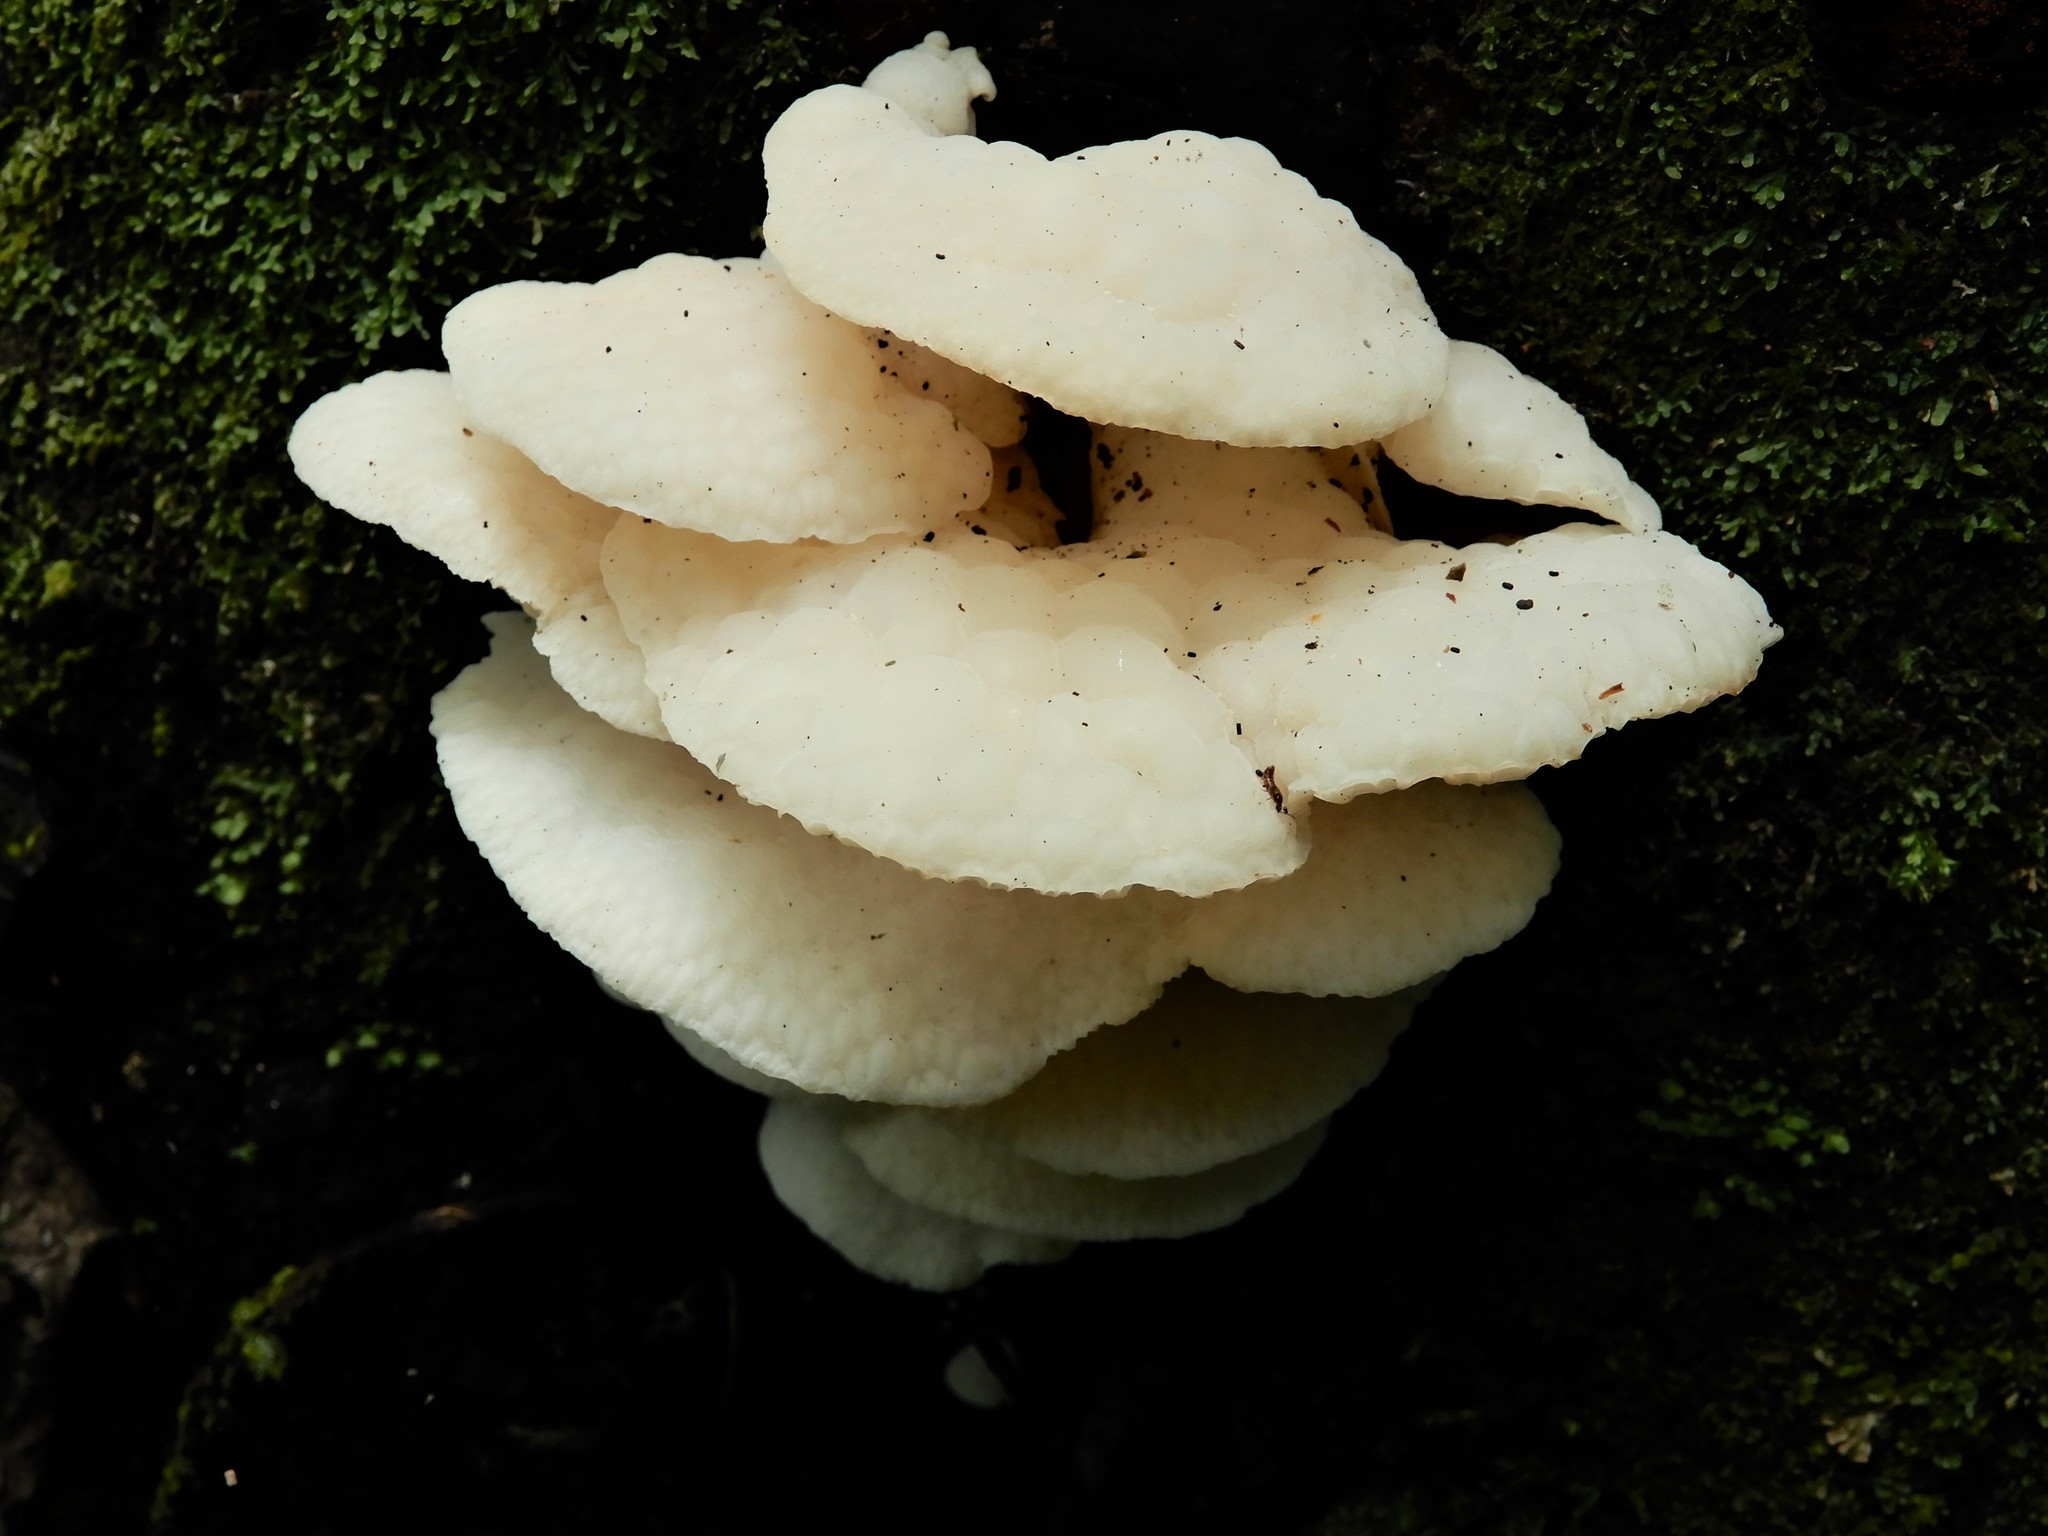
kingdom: Fungi
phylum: Basidiomycota
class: Agaricomycetes
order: Agaricales
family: Mycenaceae
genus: Favolaschia
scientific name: Favolaschia pustulosa
